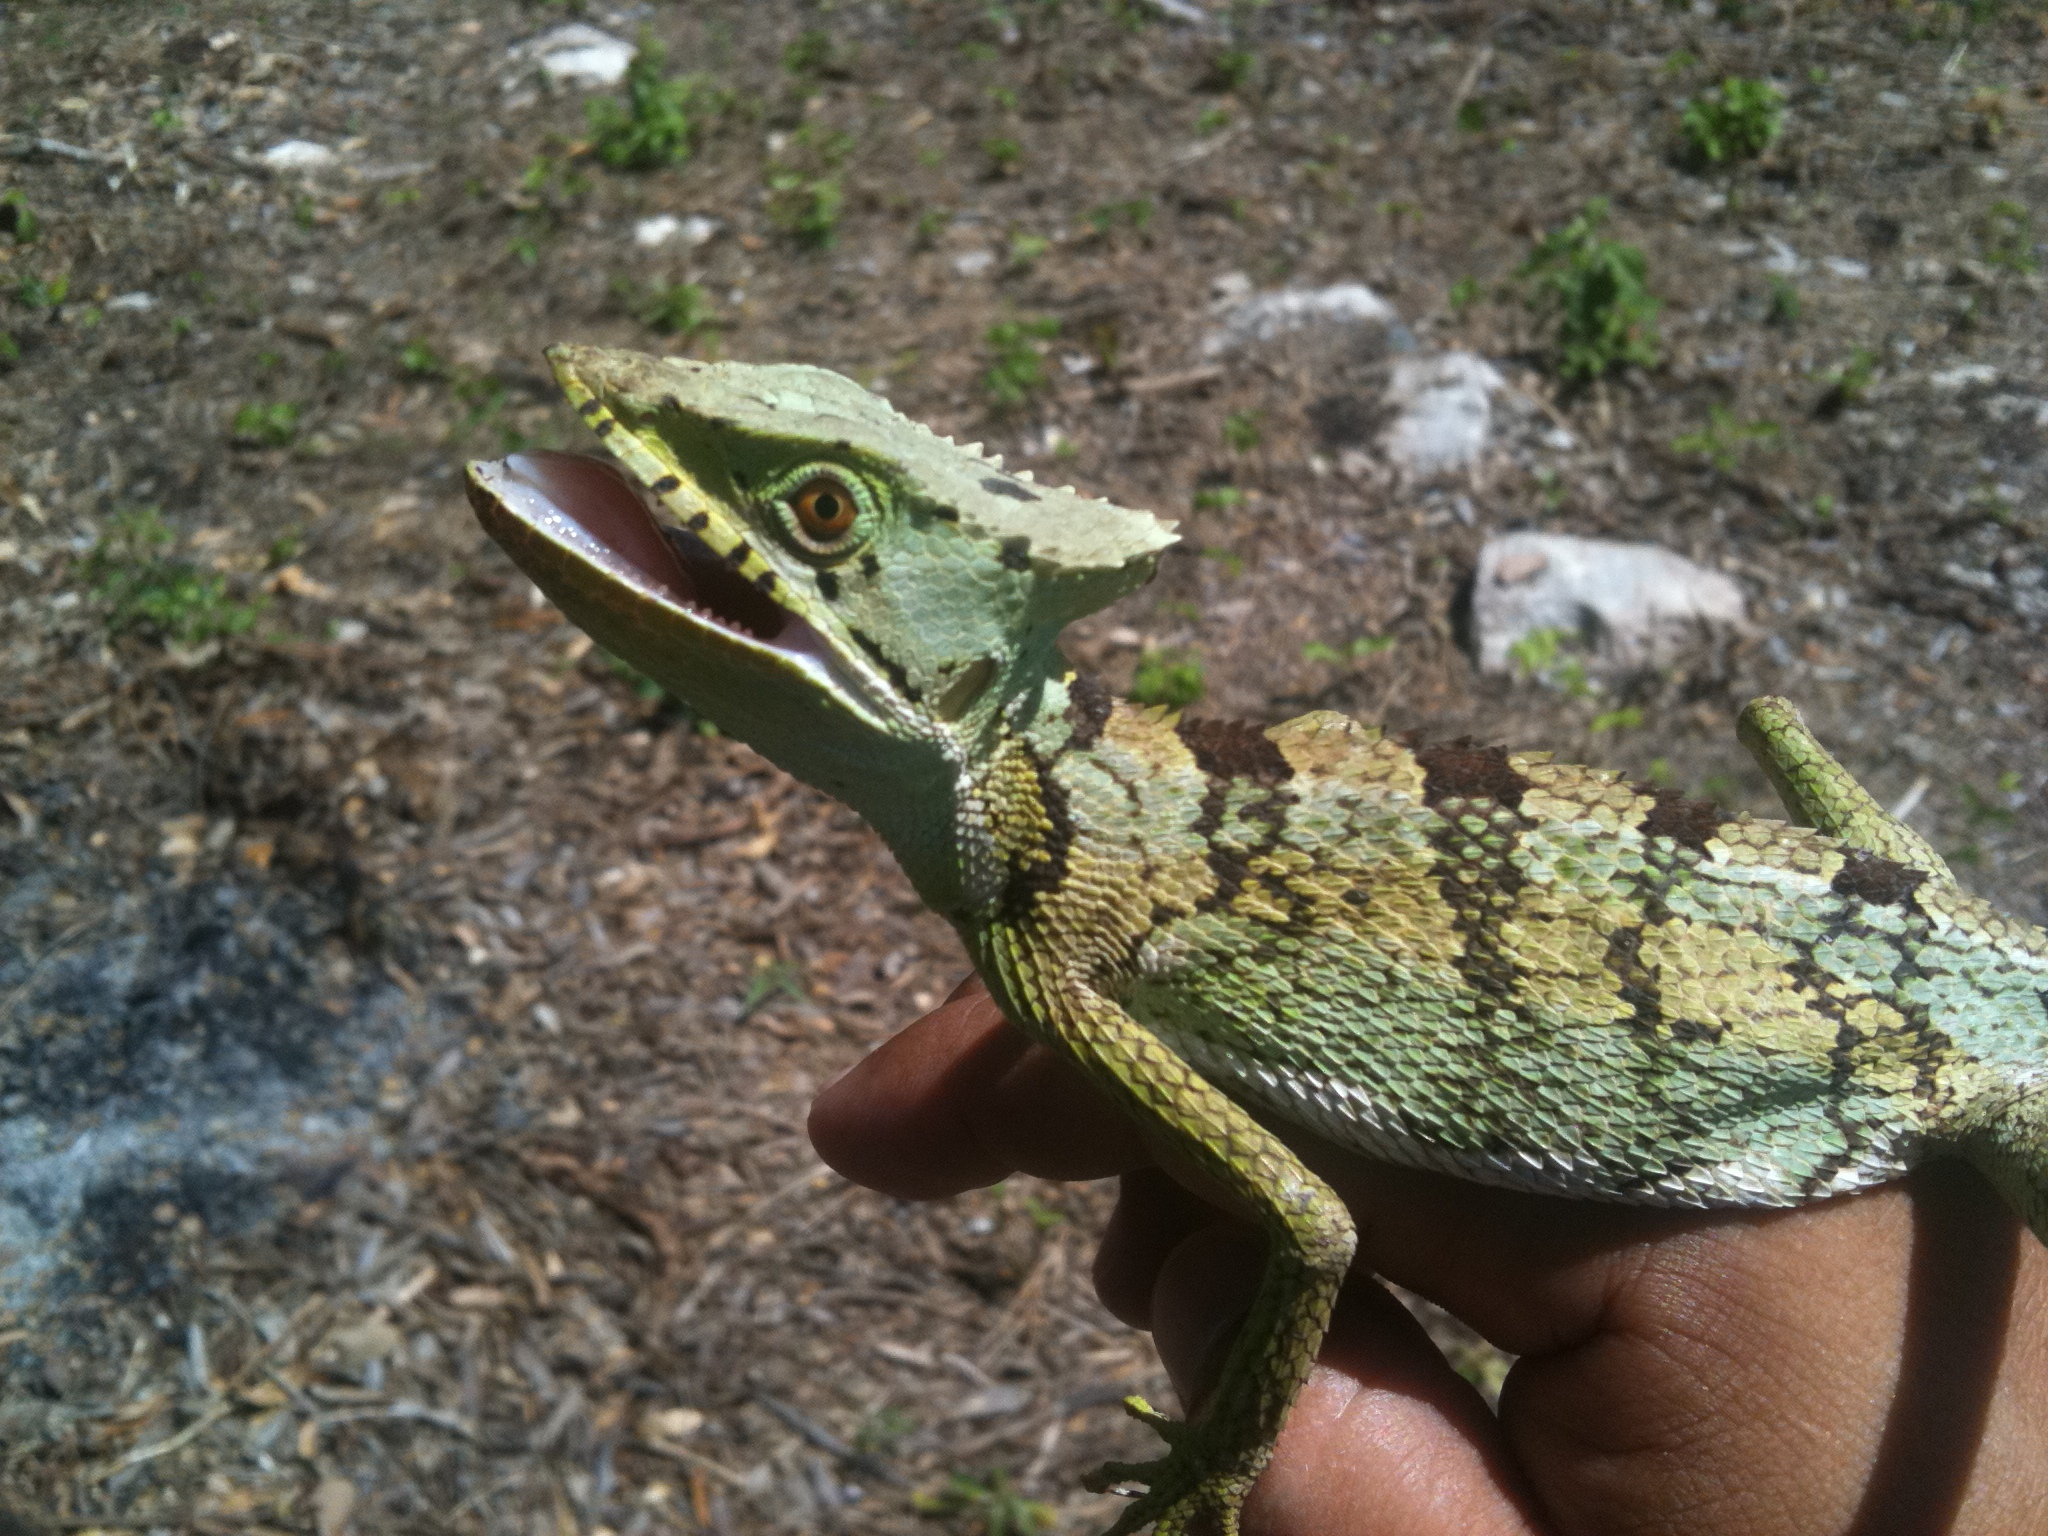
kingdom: Animalia
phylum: Chordata
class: Squamata
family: Corytophanidae
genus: Laemanctus
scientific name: Laemanctus serratus
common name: Serrated casquehead iguana
